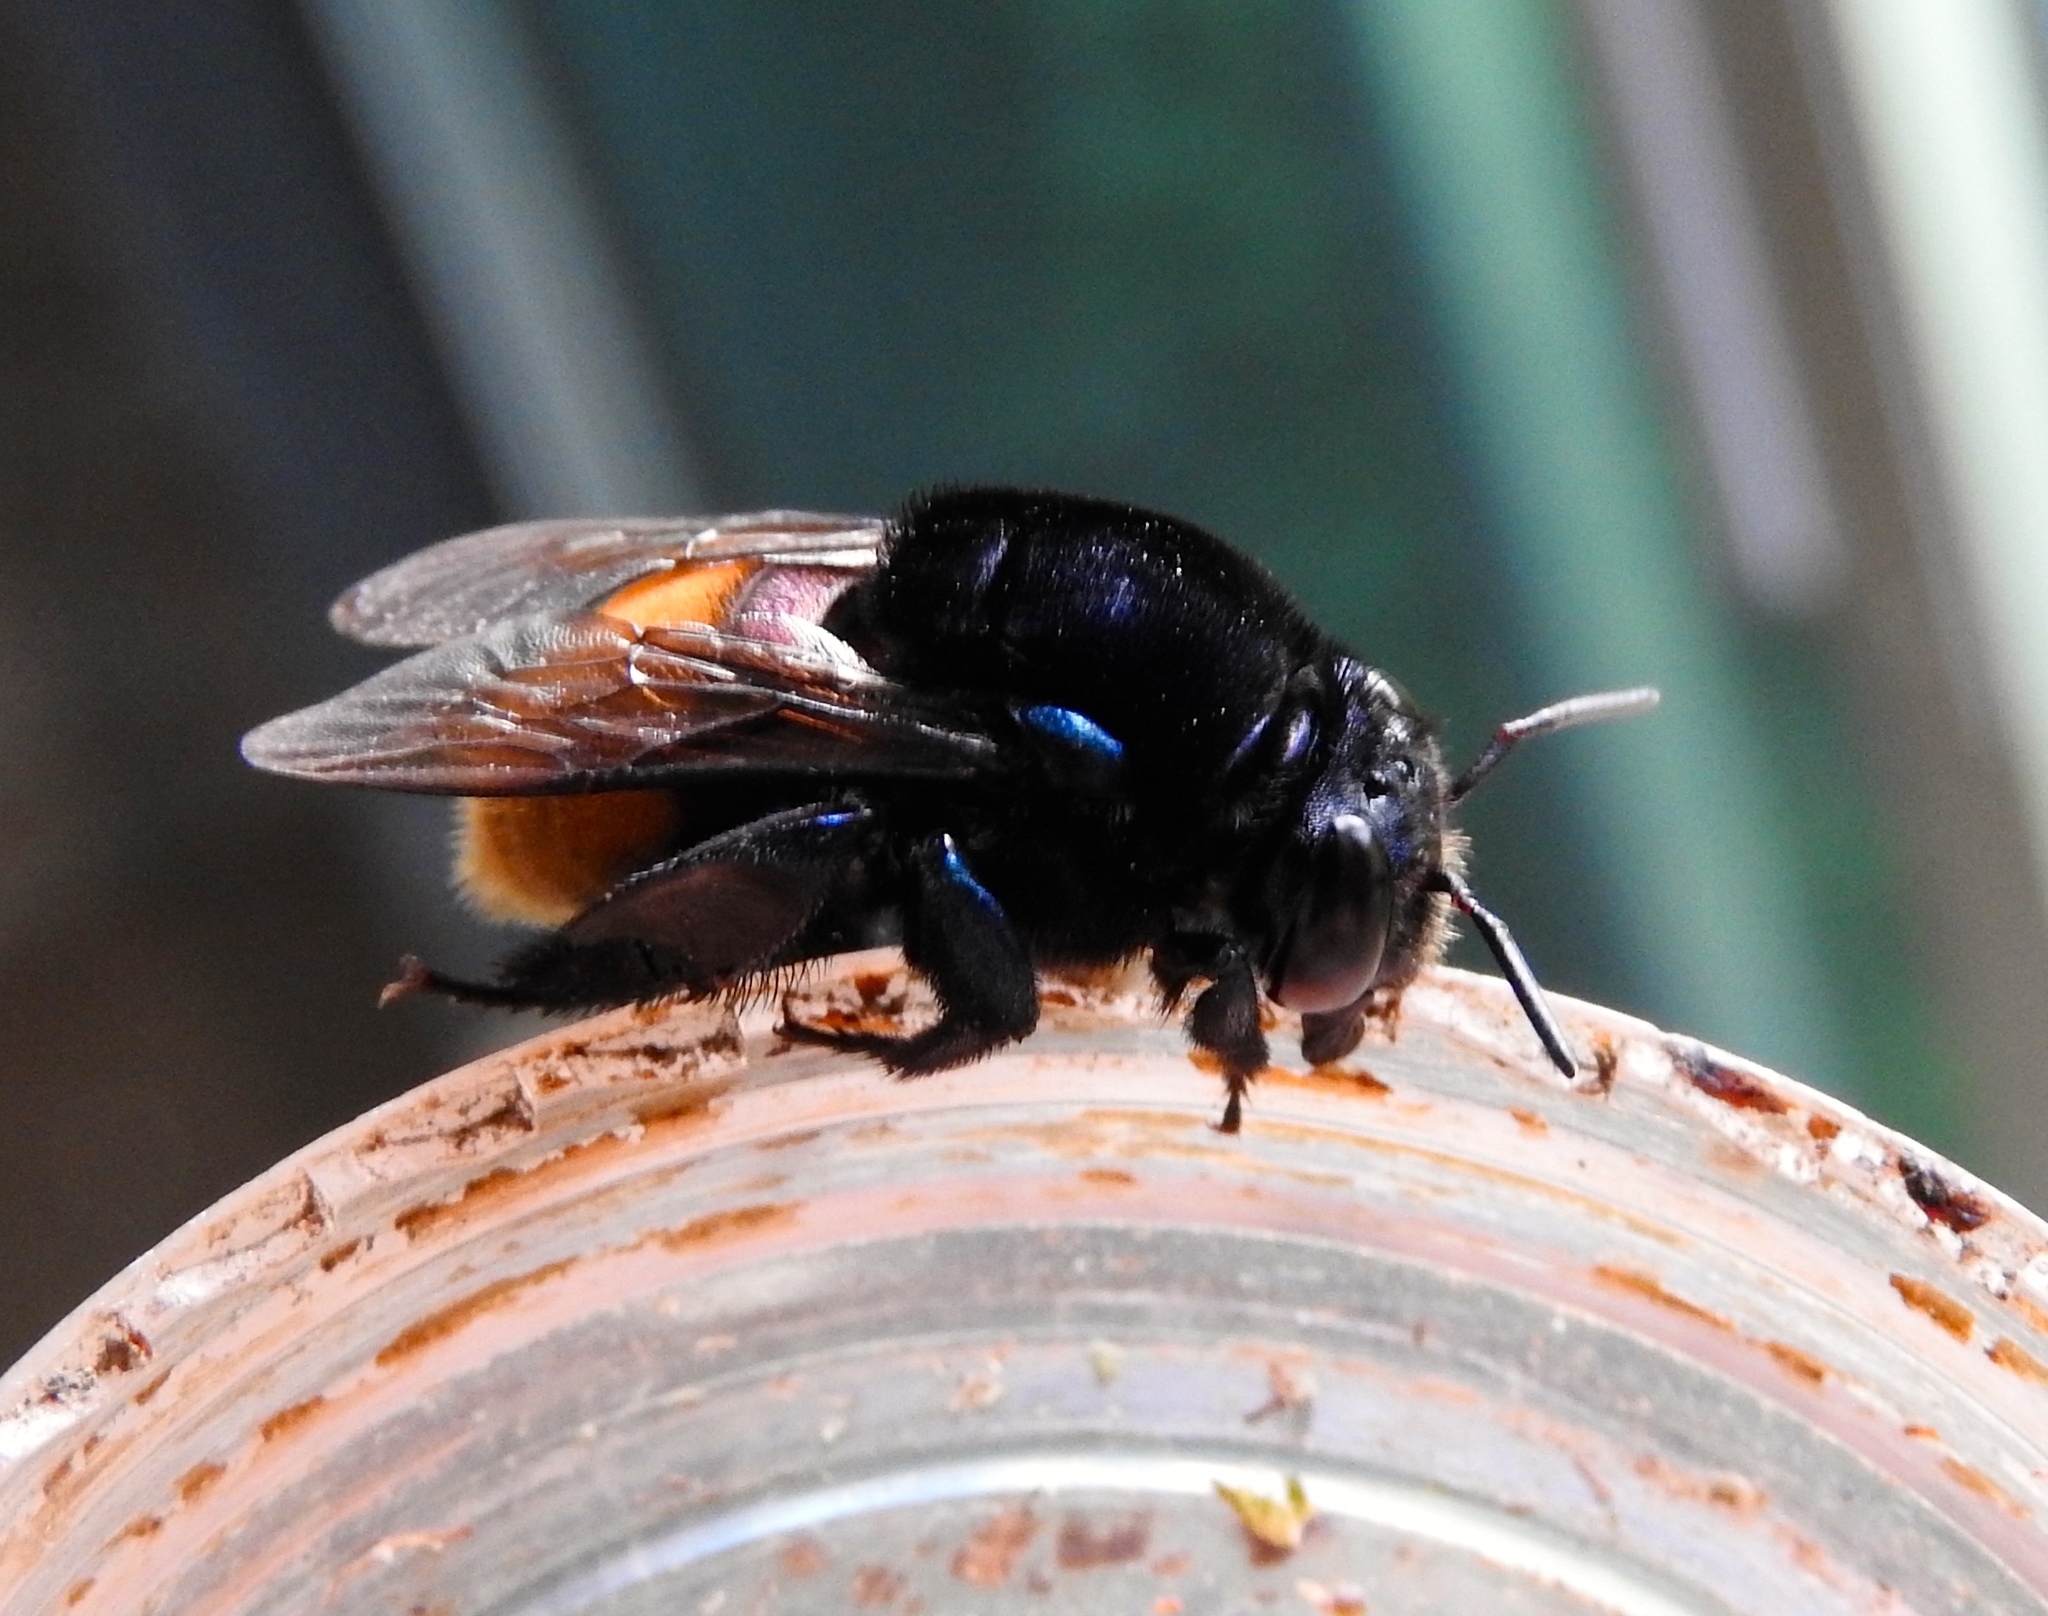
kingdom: Animalia
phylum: Arthropoda
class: Insecta
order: Hymenoptera
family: Apidae
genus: Eufriesea
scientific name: Eufriesea
